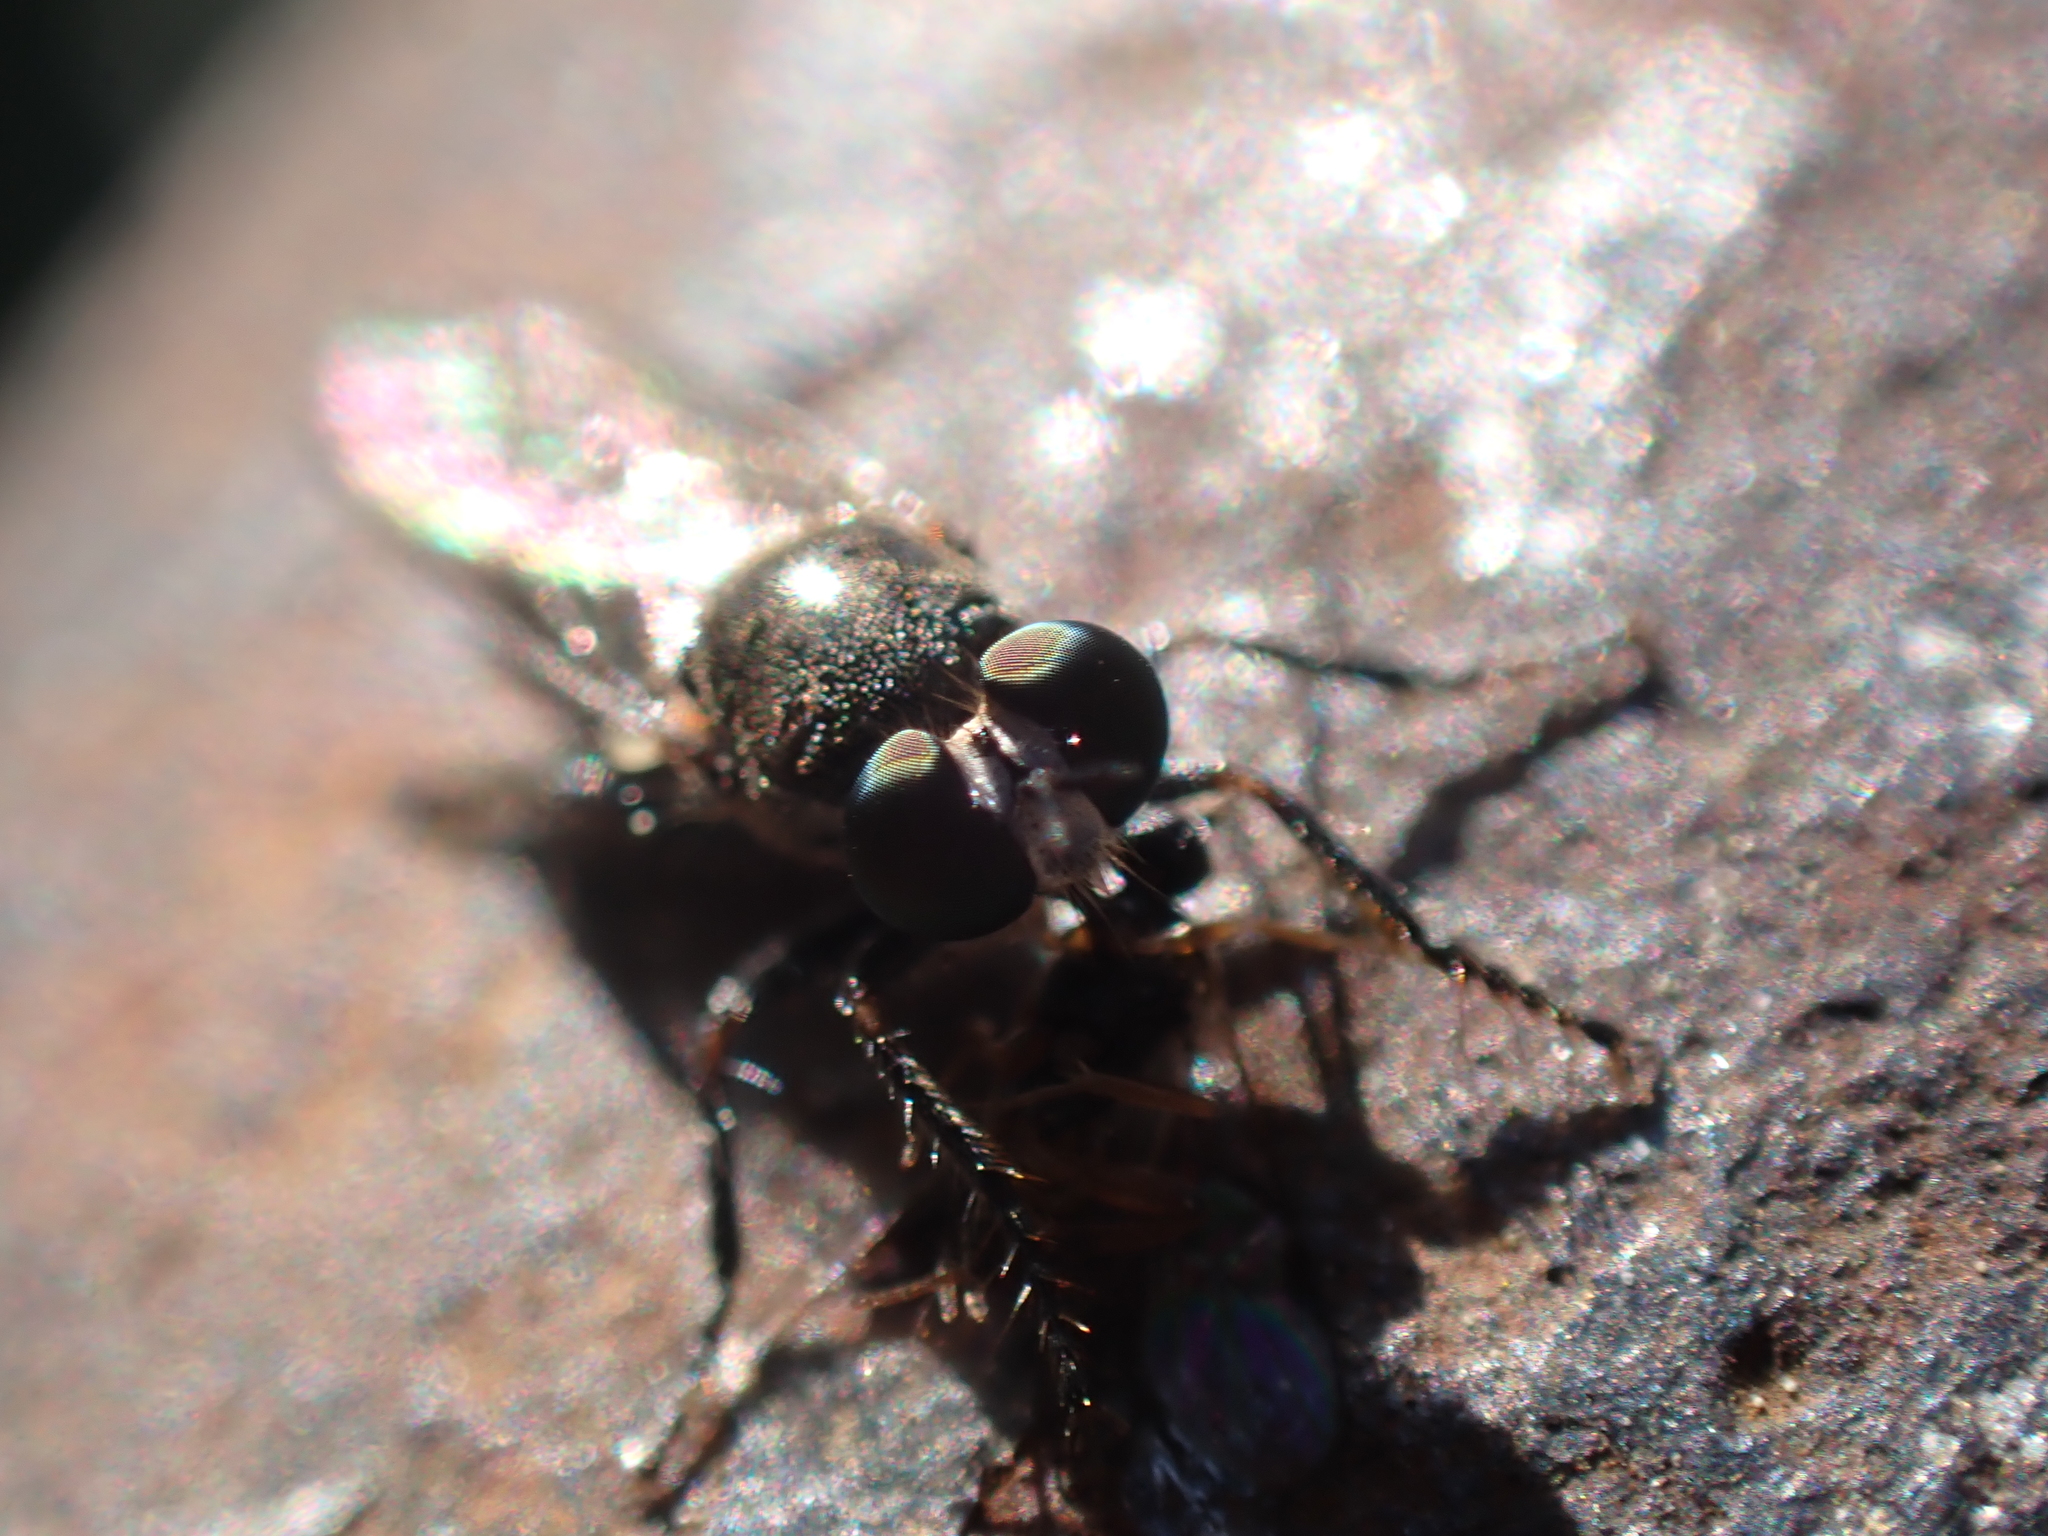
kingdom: Animalia
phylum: Arthropoda
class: Insecta
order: Diptera
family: Asilidae
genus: Atomosia
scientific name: Atomosia puella
